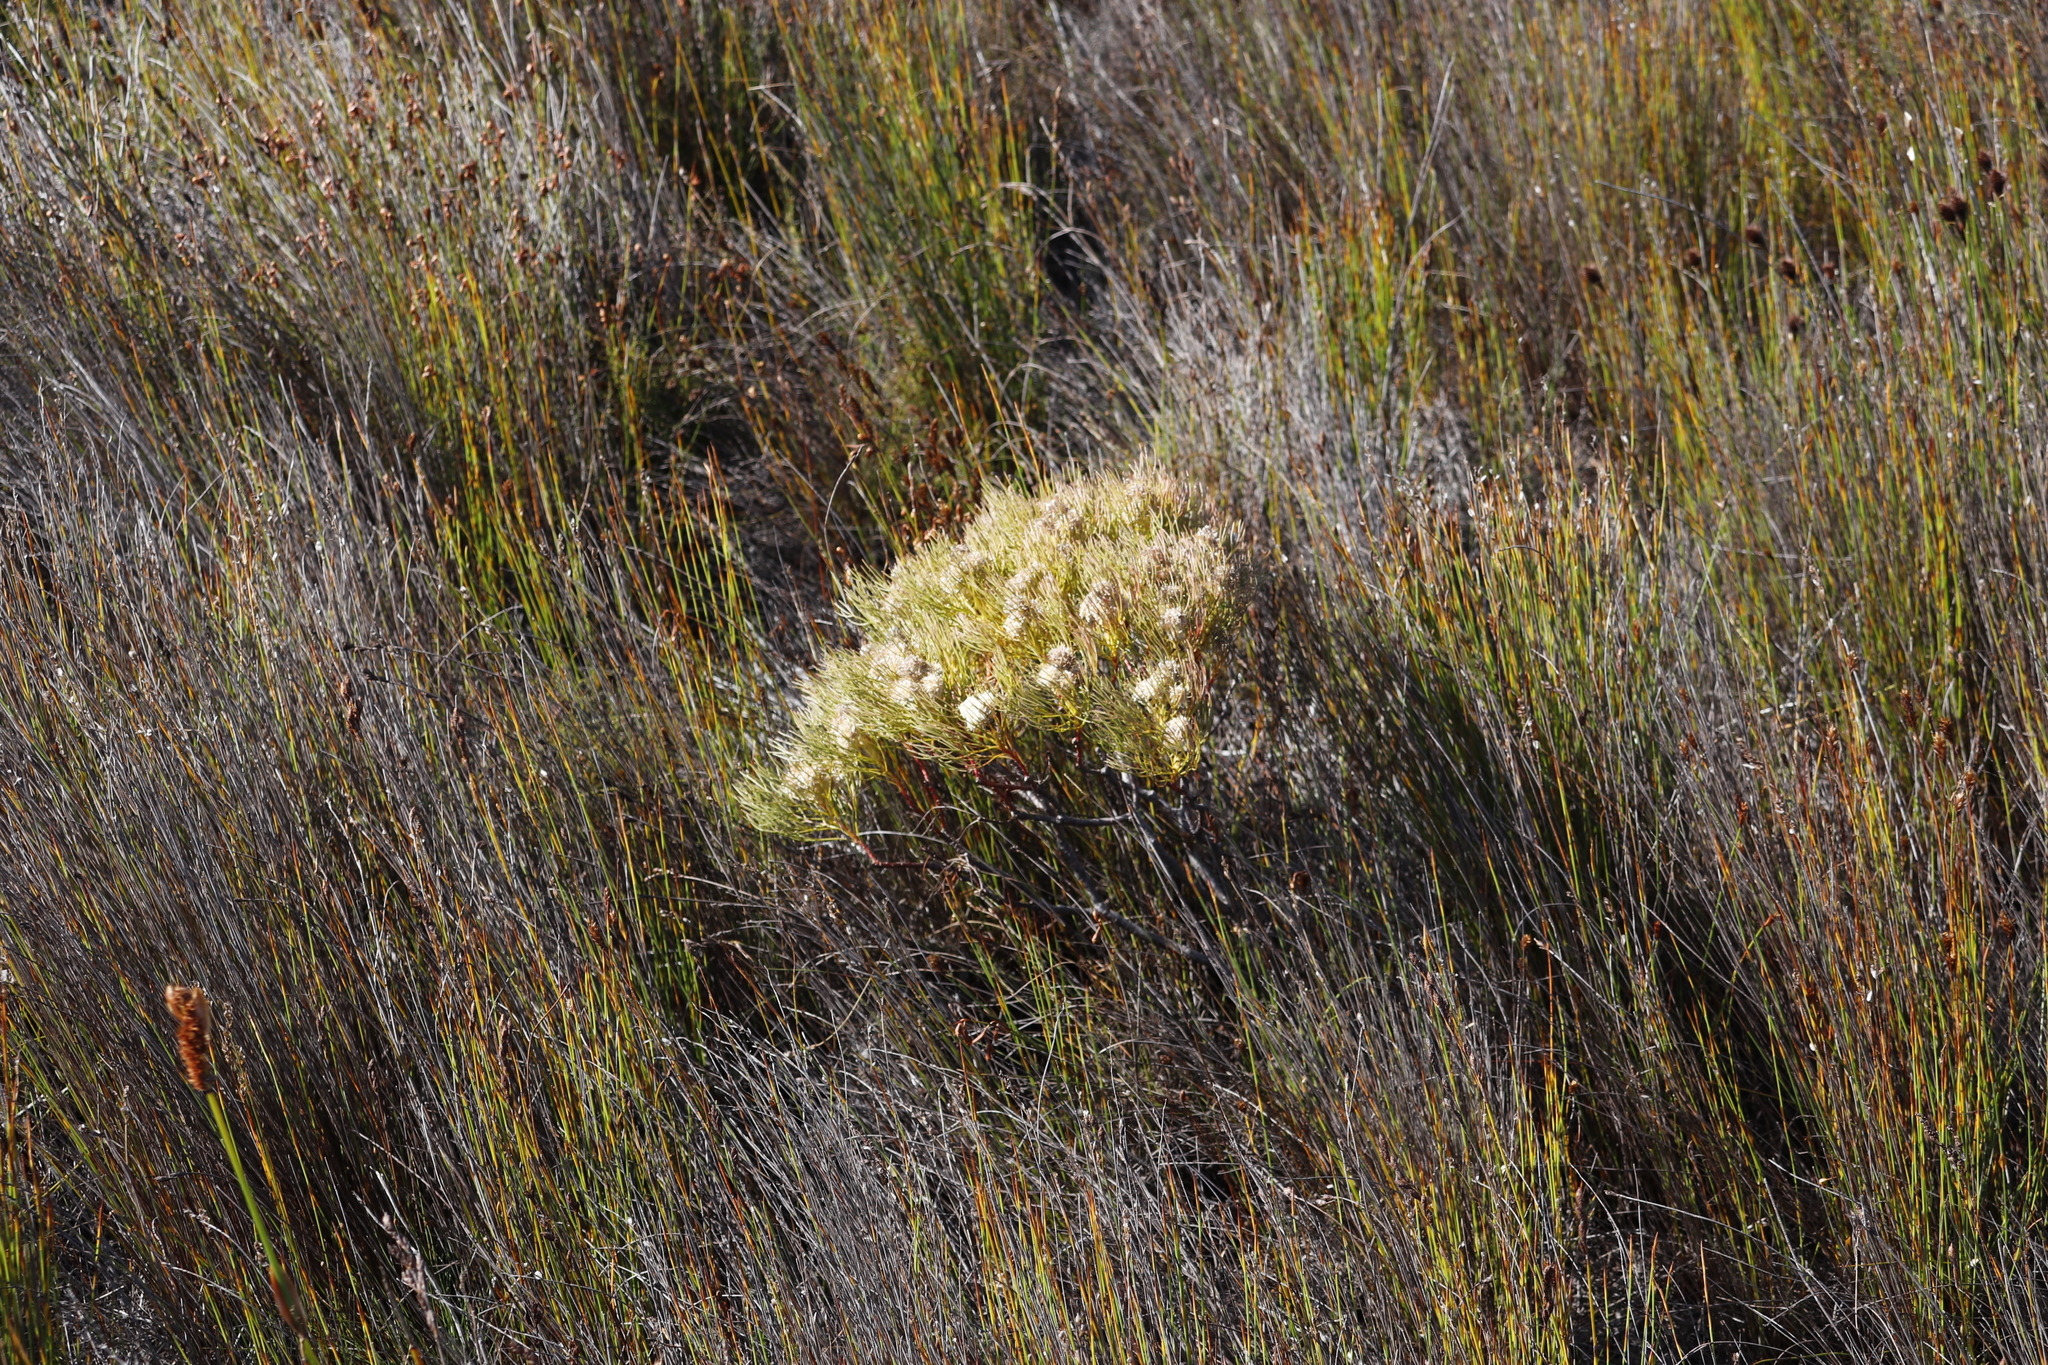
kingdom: Plantae
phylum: Tracheophyta
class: Magnoliopsida
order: Proteales
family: Proteaceae
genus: Serruria
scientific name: Serruria glomerata
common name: Cluster spiderhead
